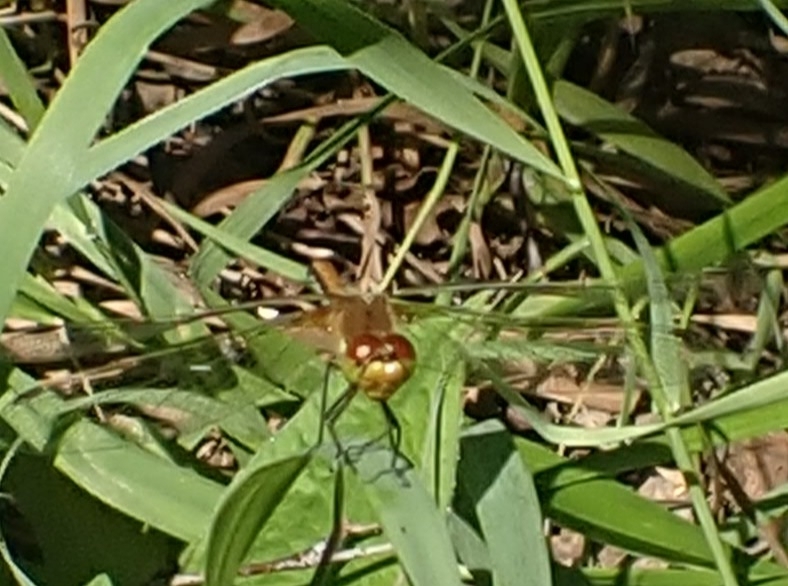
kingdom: Animalia
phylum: Arthropoda
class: Insecta
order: Odonata
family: Libellulidae
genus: Sympetrum
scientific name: Sympetrum flaveolum
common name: Yellow-winged darter
